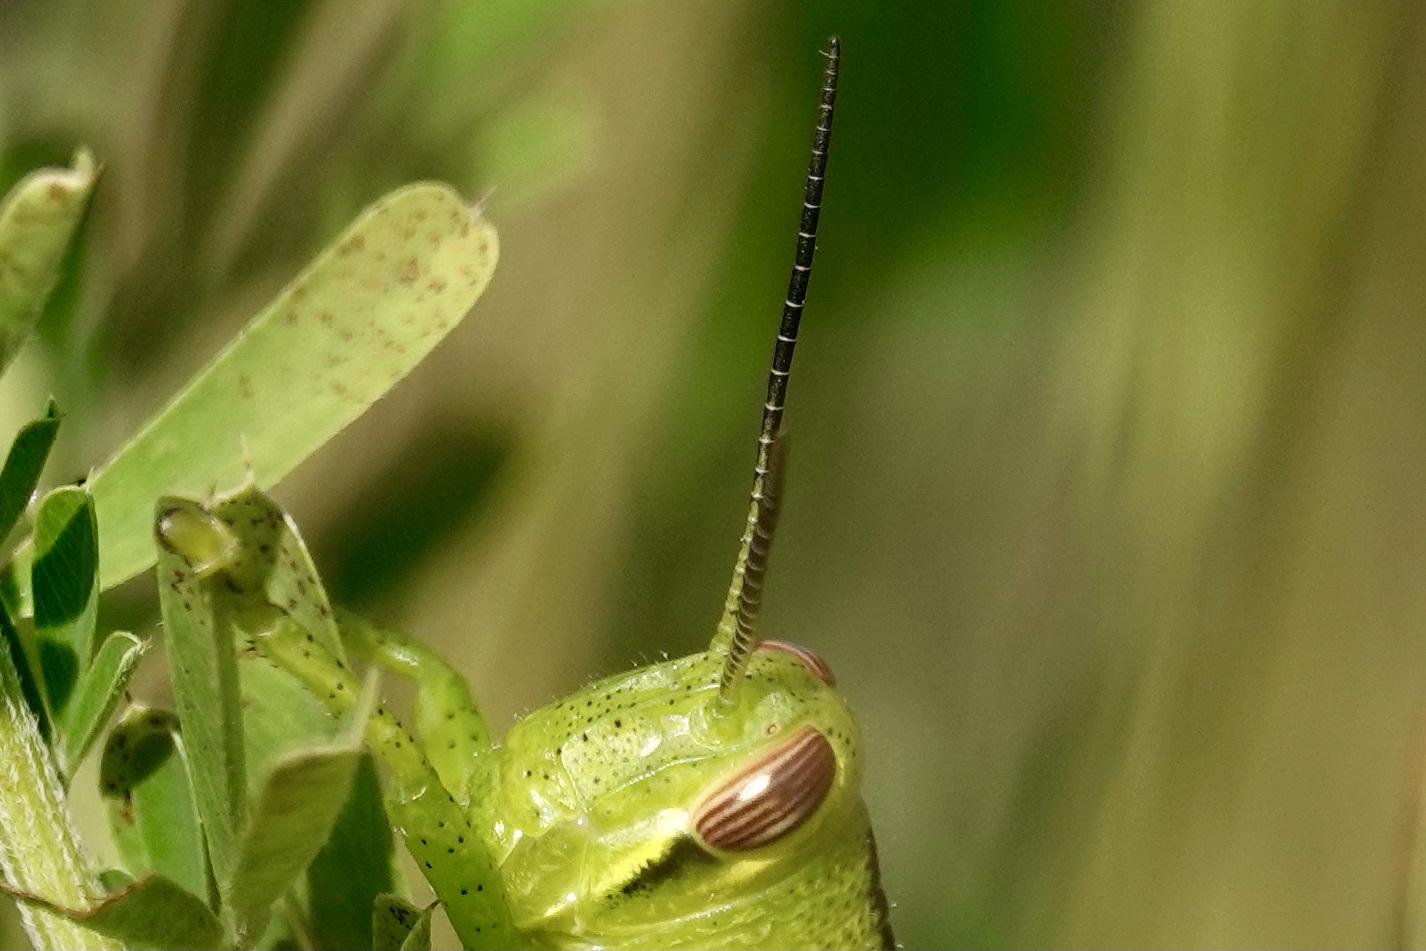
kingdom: Animalia
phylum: Arthropoda
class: Insecta
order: Orthoptera
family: Acrididae
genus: Schistocerca
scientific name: Schistocerca americana
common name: American bird locust
